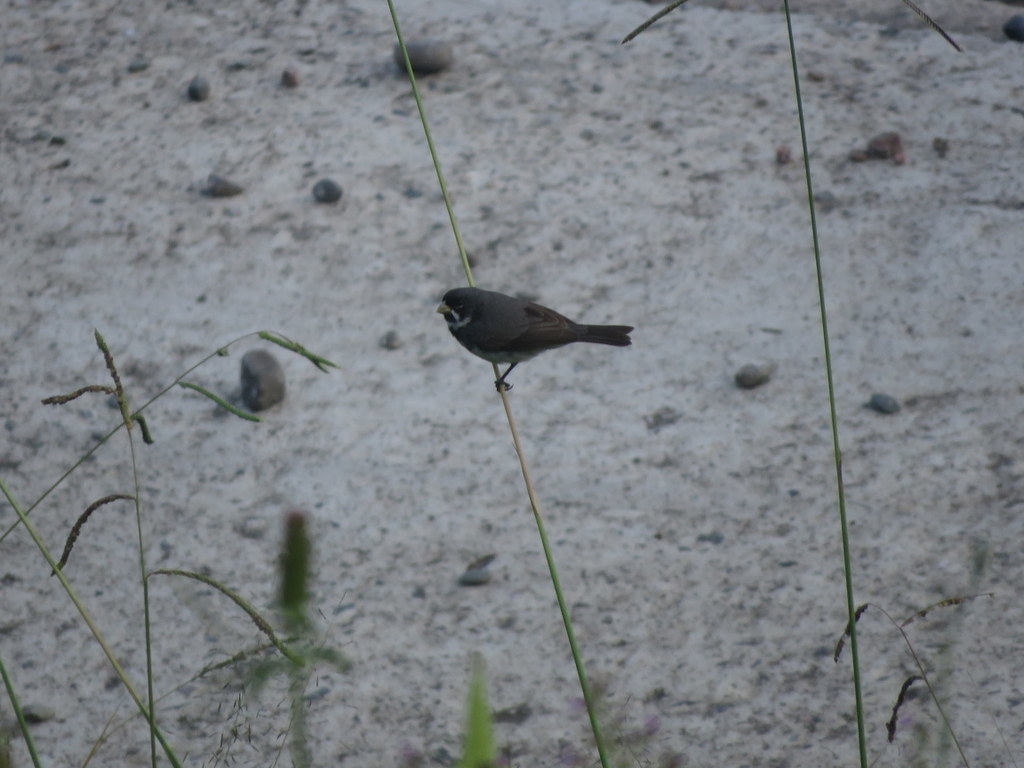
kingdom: Animalia
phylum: Chordata
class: Aves
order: Passeriformes
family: Thraupidae
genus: Sporophila
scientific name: Sporophila caerulescens
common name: Double-collared seedeater
